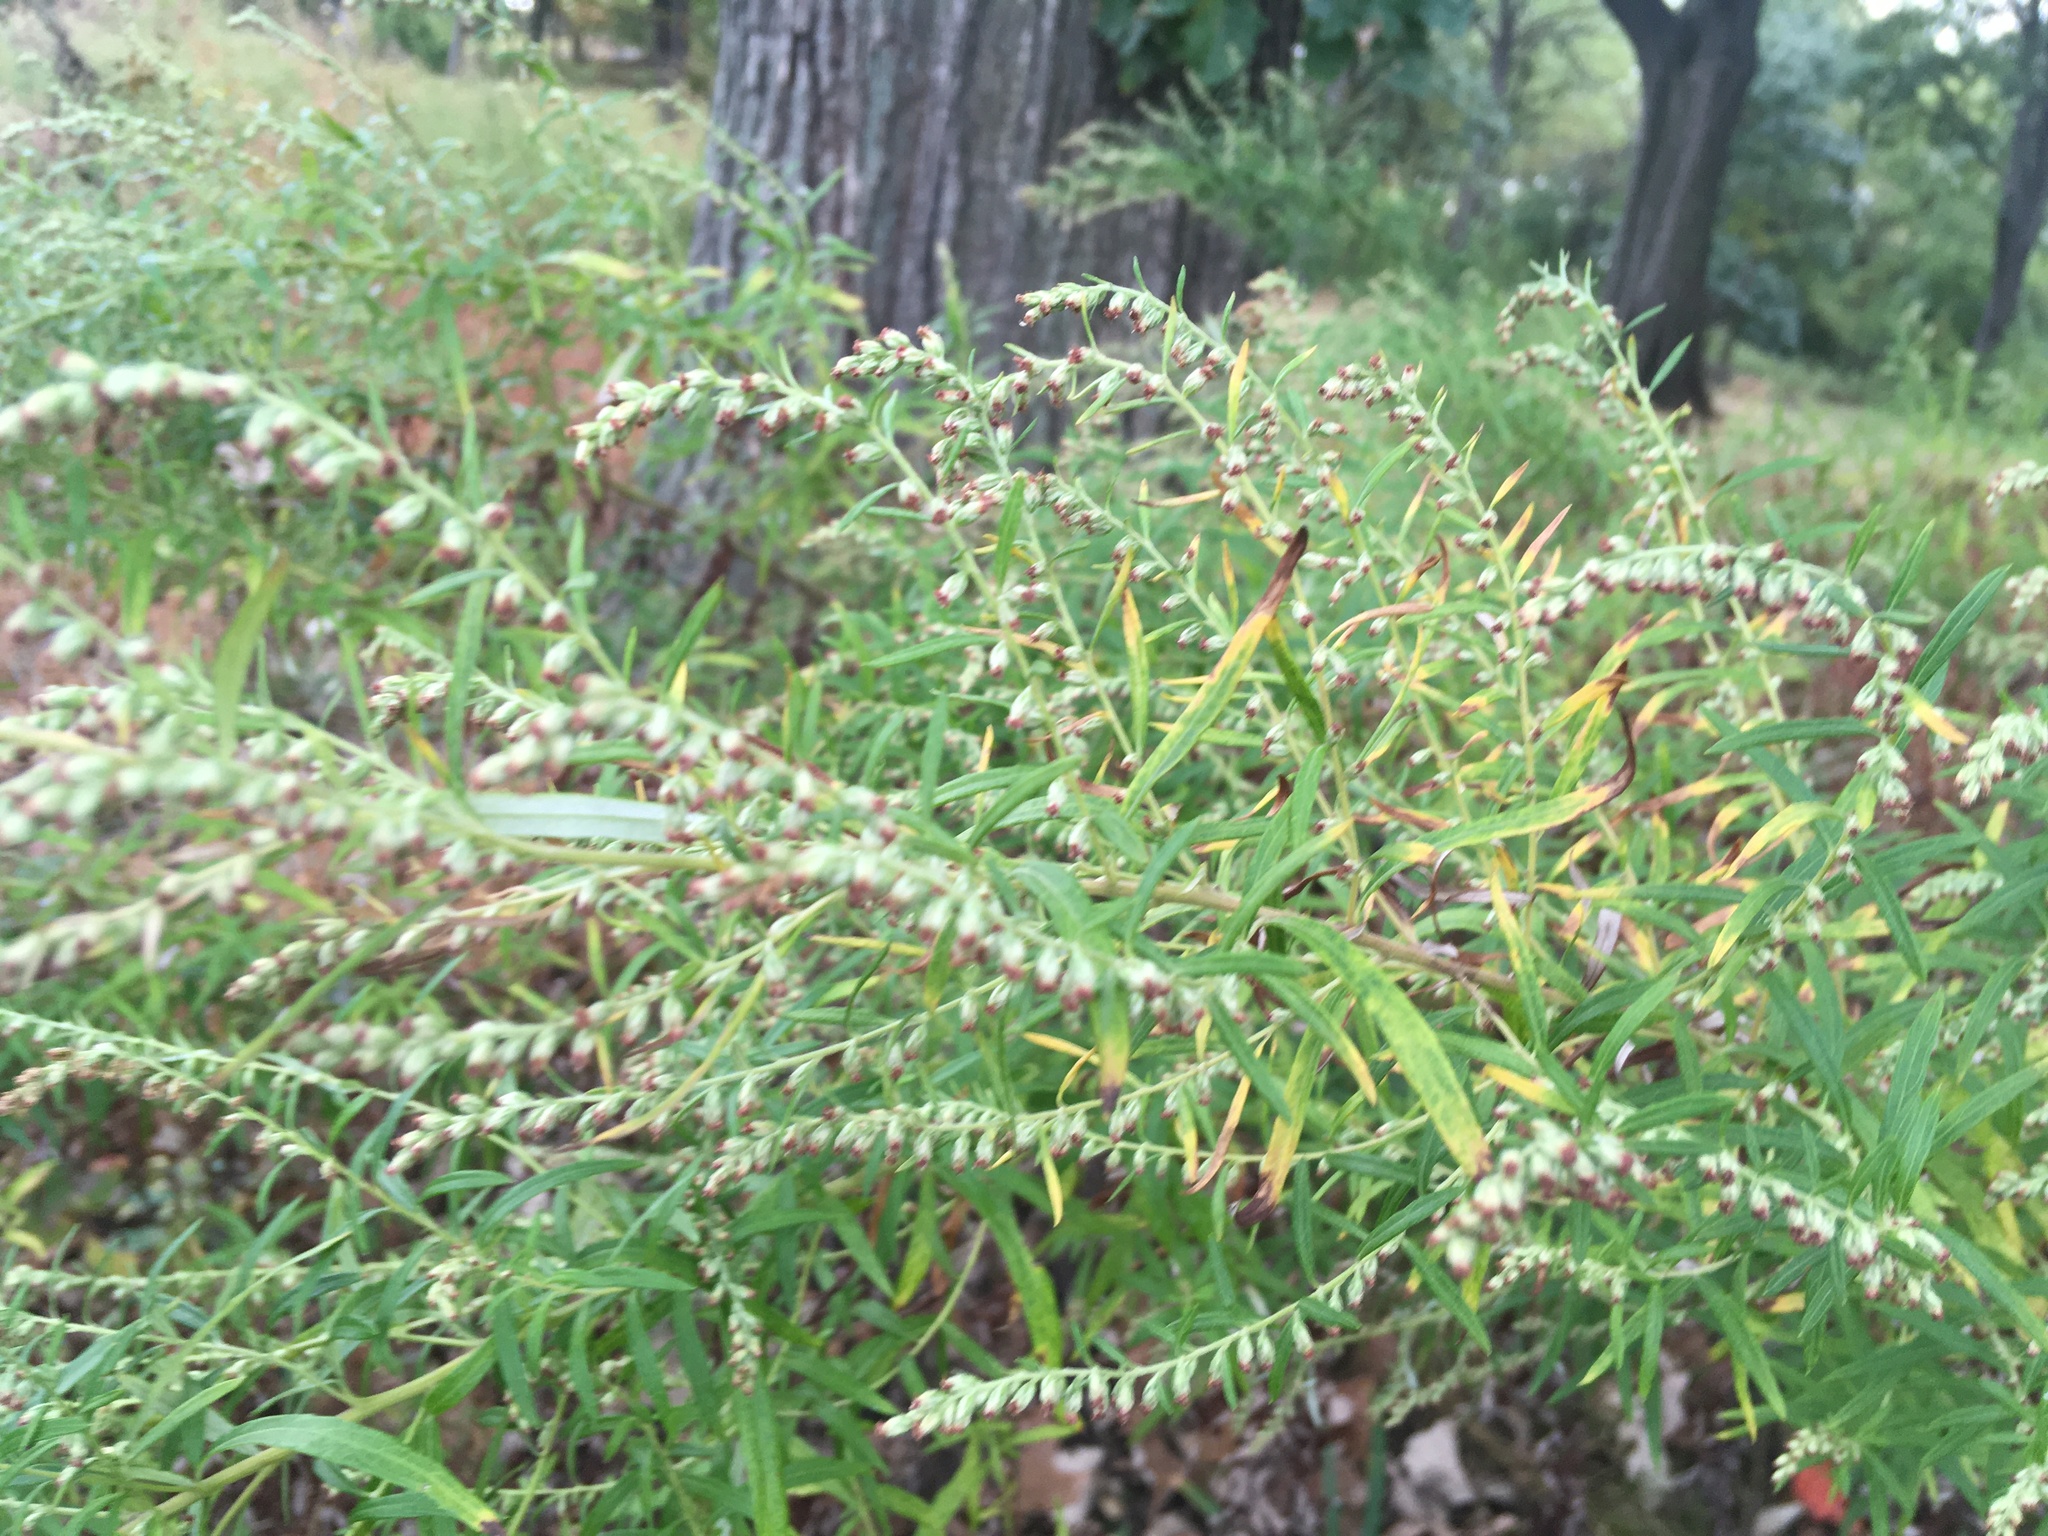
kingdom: Plantae
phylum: Tracheophyta
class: Magnoliopsida
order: Asterales
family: Asteraceae
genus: Artemisia
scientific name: Artemisia vulgaris
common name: Mugwort
